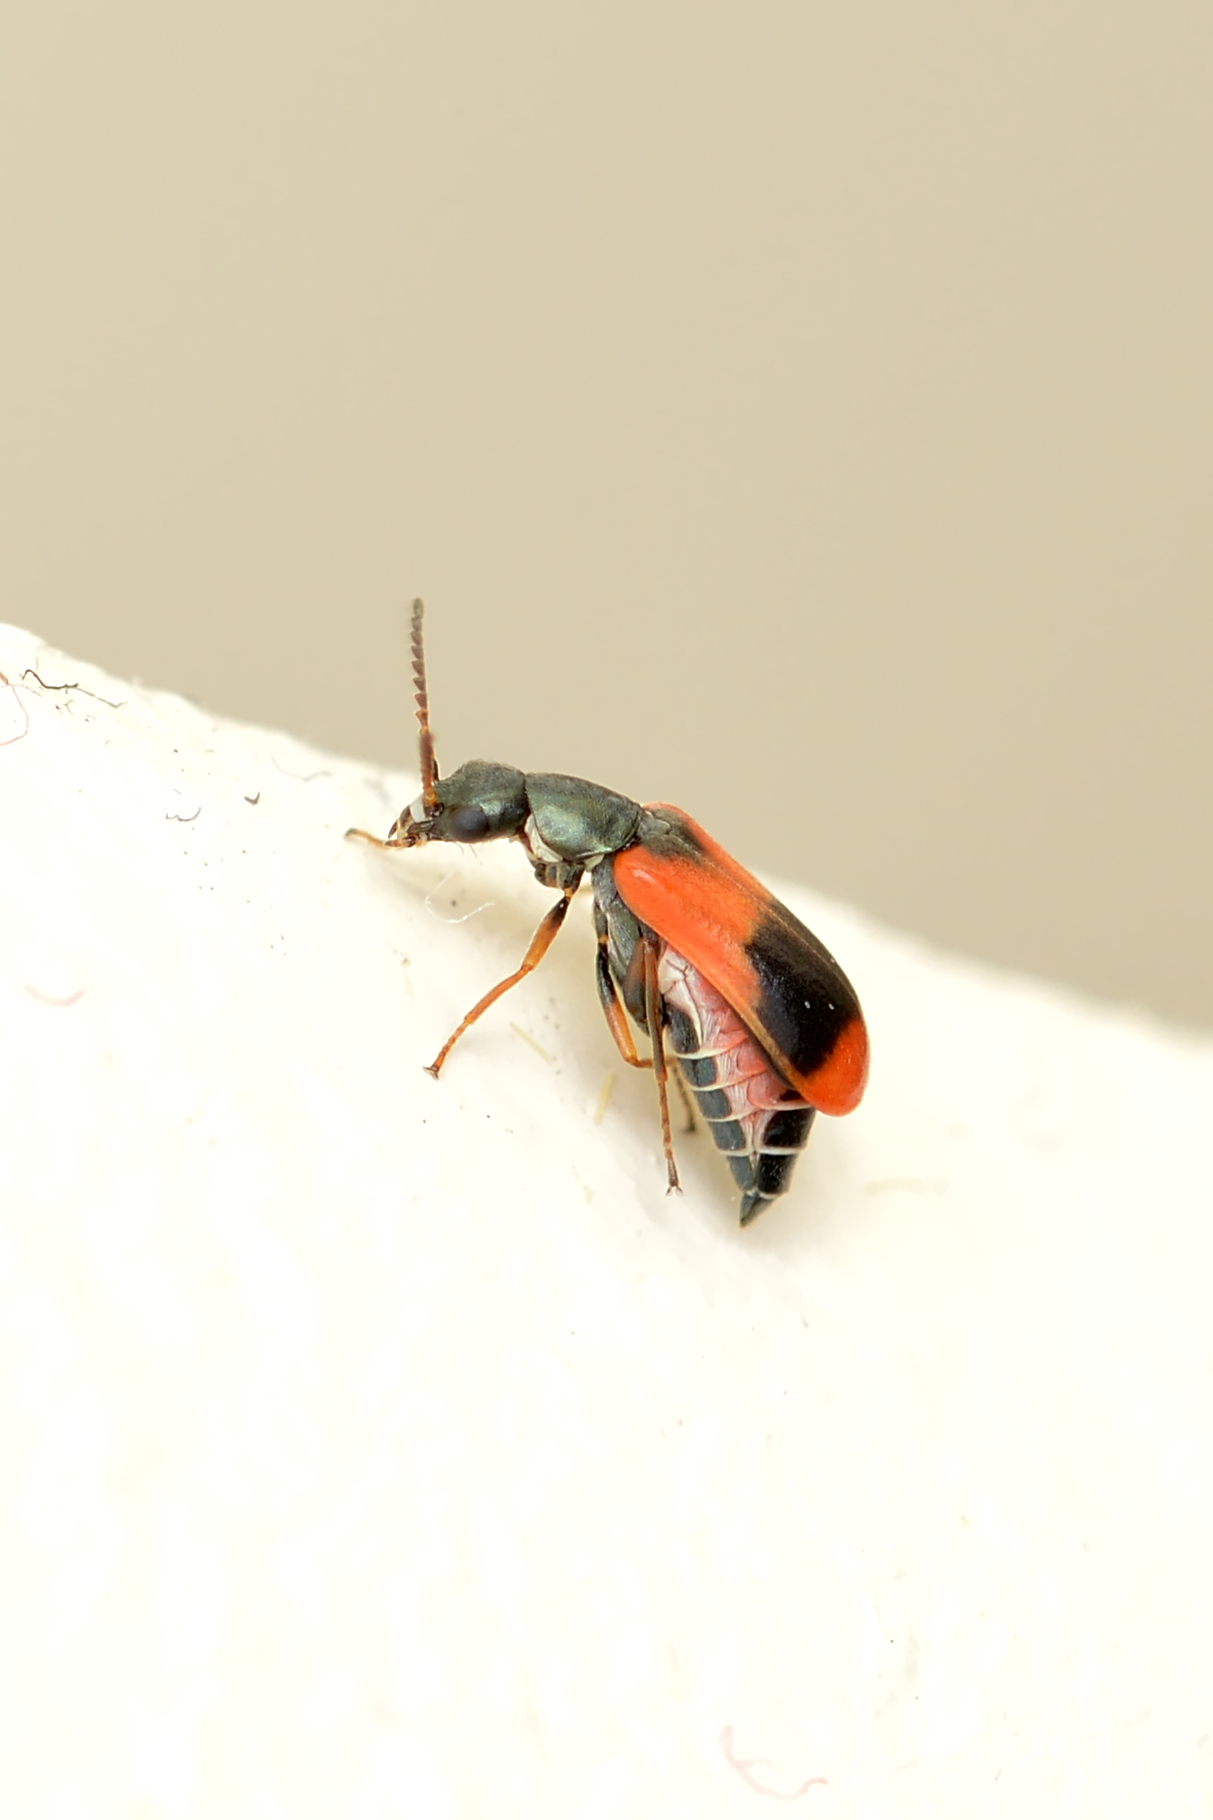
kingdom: Animalia
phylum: Arthropoda
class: Insecta
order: Coleoptera
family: Melyridae
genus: Anthocomus
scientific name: Anthocomus equestris
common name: Black-banded soft-winged flower beetle
